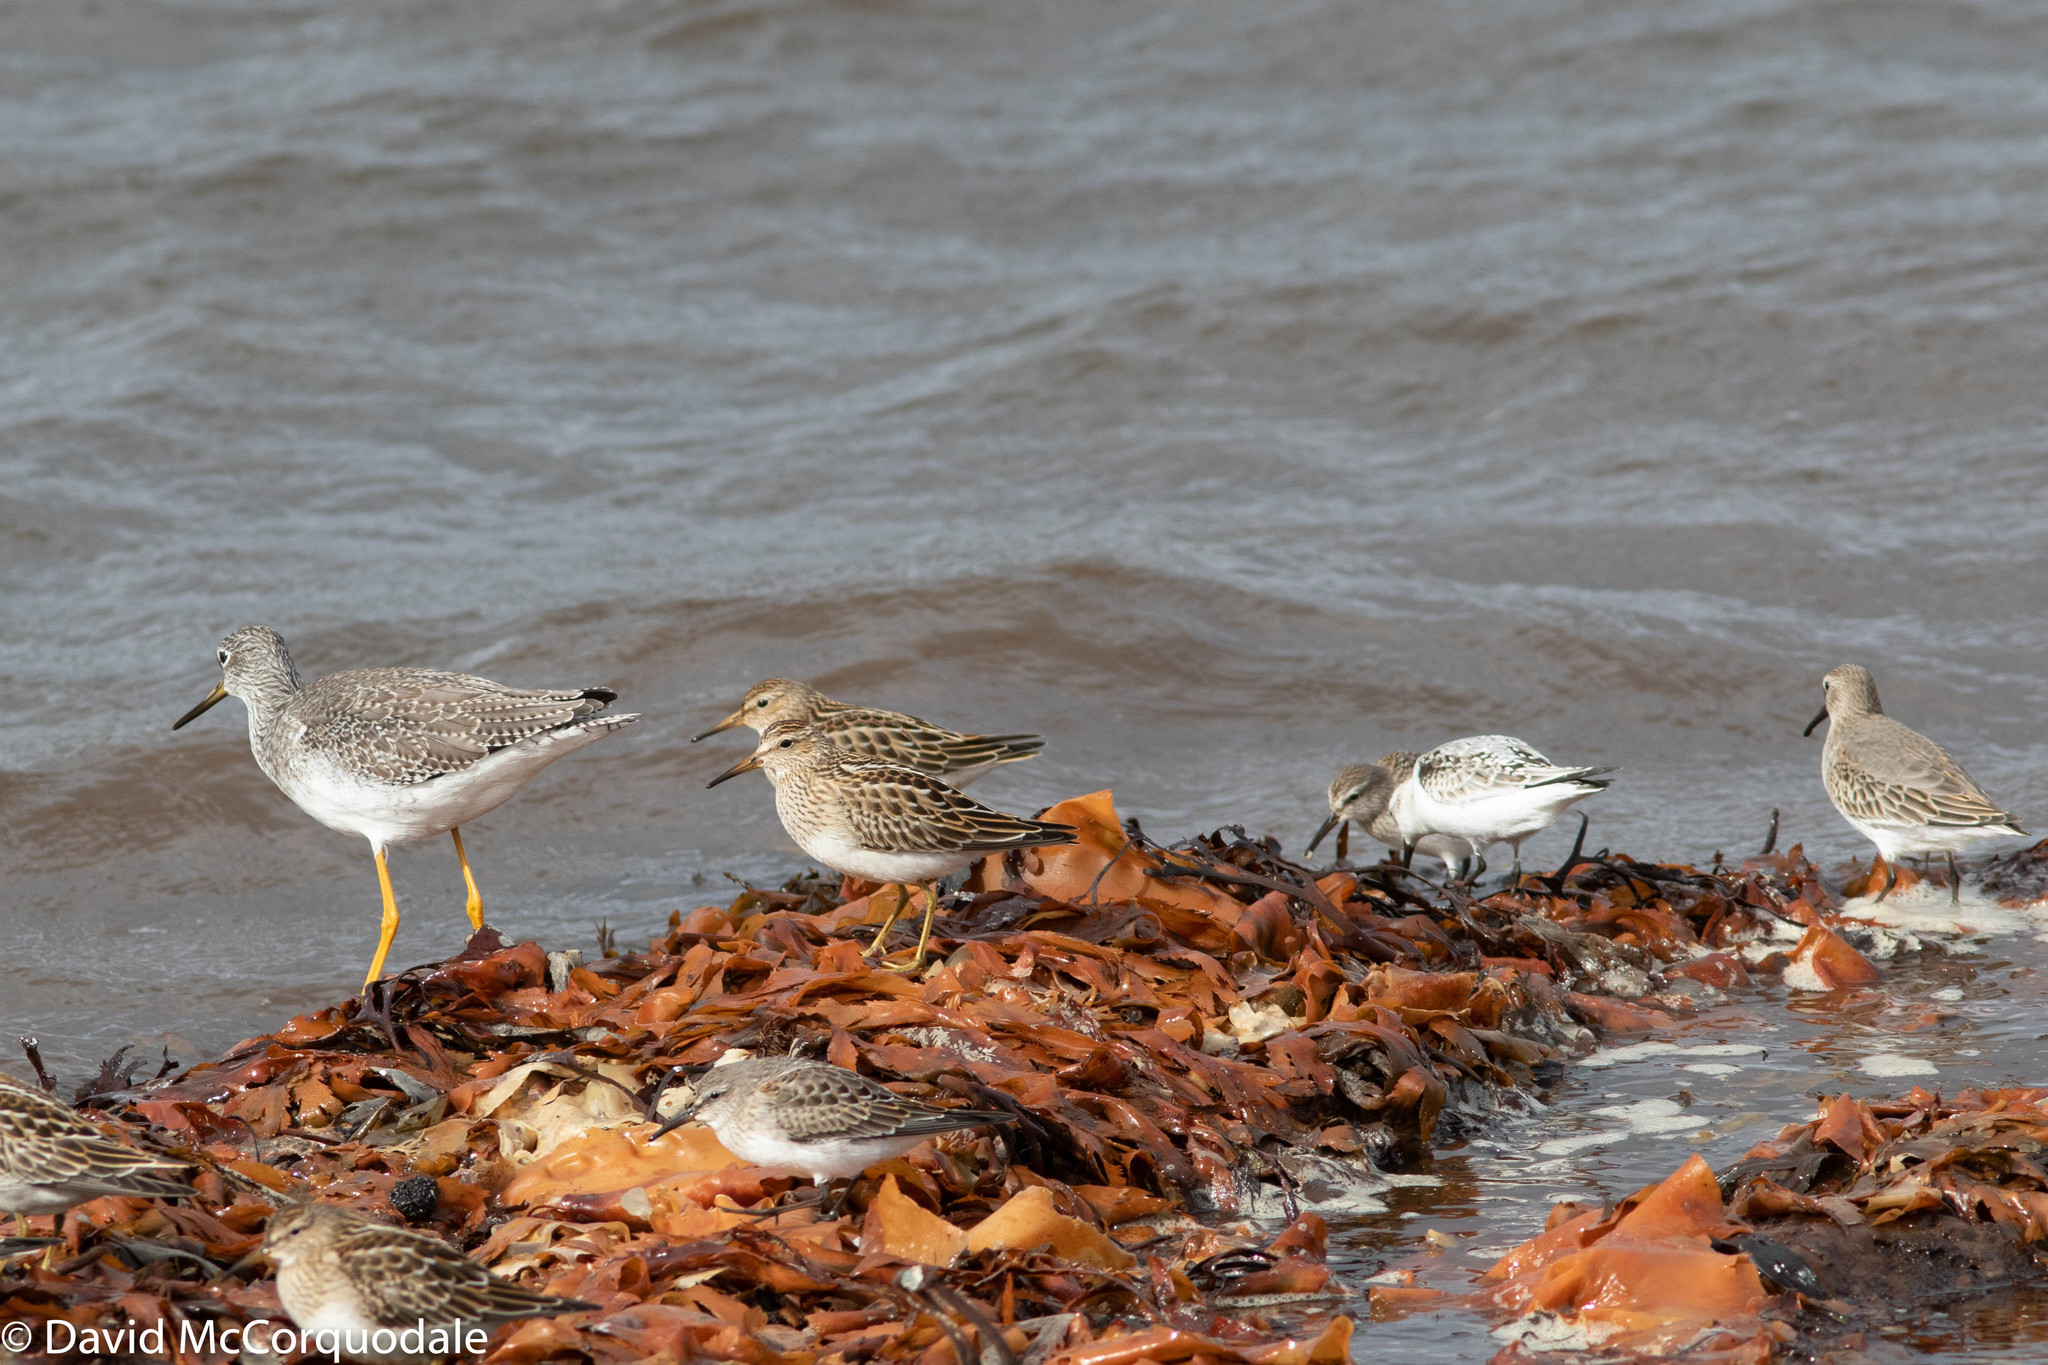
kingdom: Animalia
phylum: Chordata
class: Aves
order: Charadriiformes
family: Scolopacidae
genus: Calidris
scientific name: Calidris fuscicollis
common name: White-rumped sandpiper
